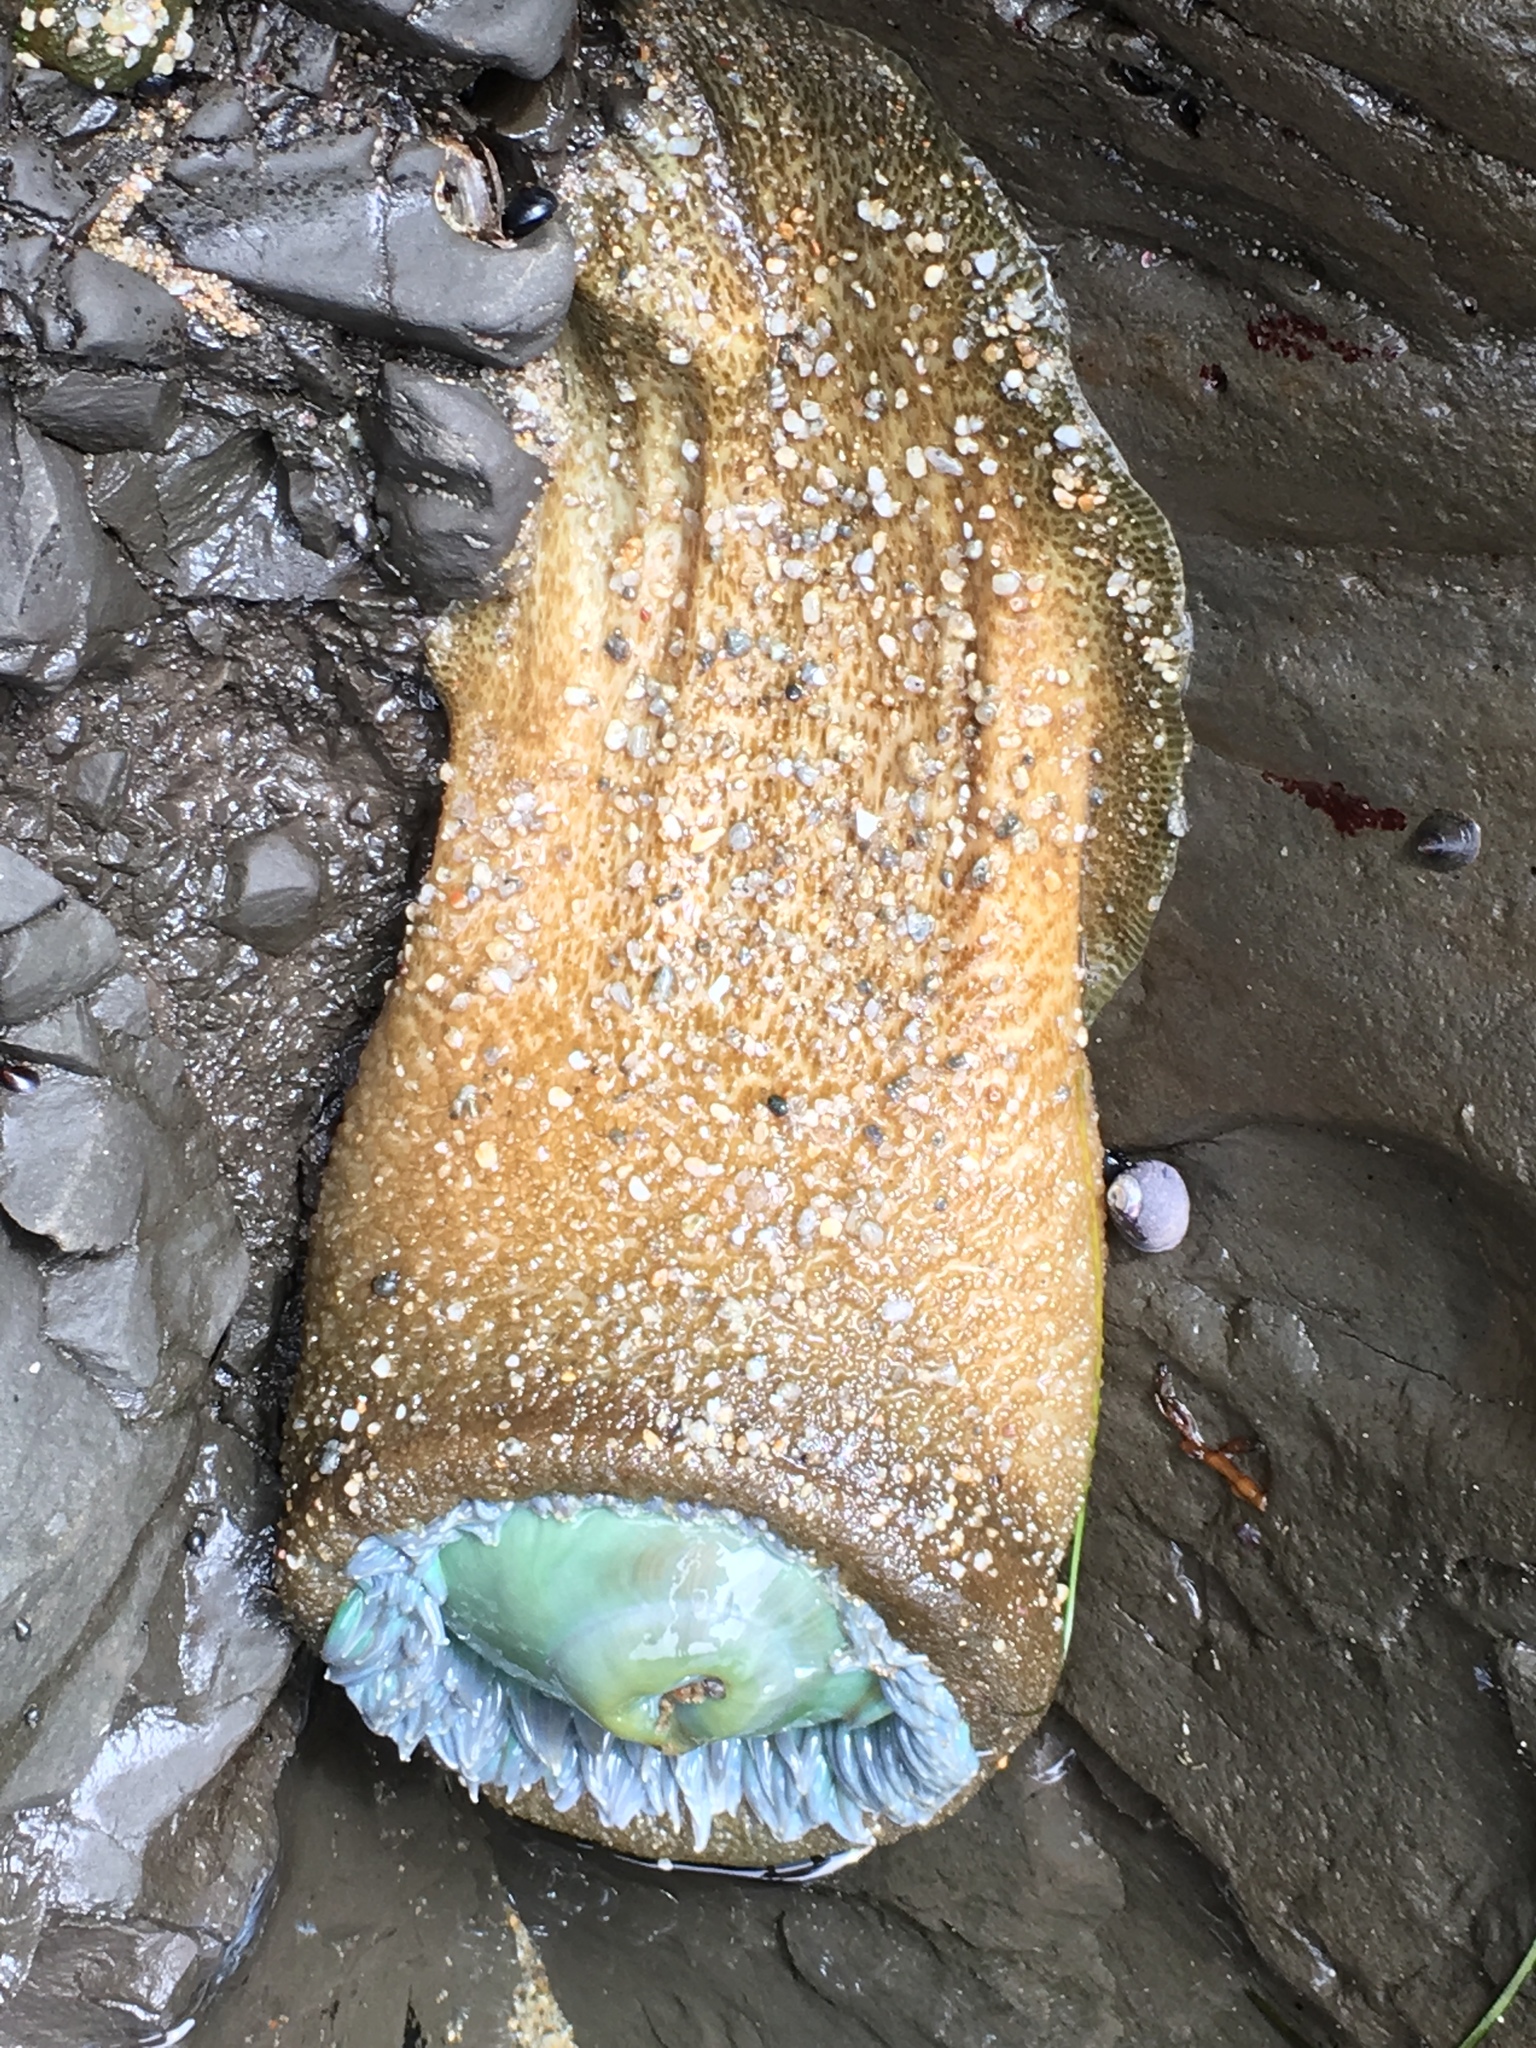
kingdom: Animalia
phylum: Cnidaria
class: Anthozoa
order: Actiniaria
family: Actiniidae
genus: Anthopleura
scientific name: Anthopleura xanthogrammica
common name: Giant green anemone
